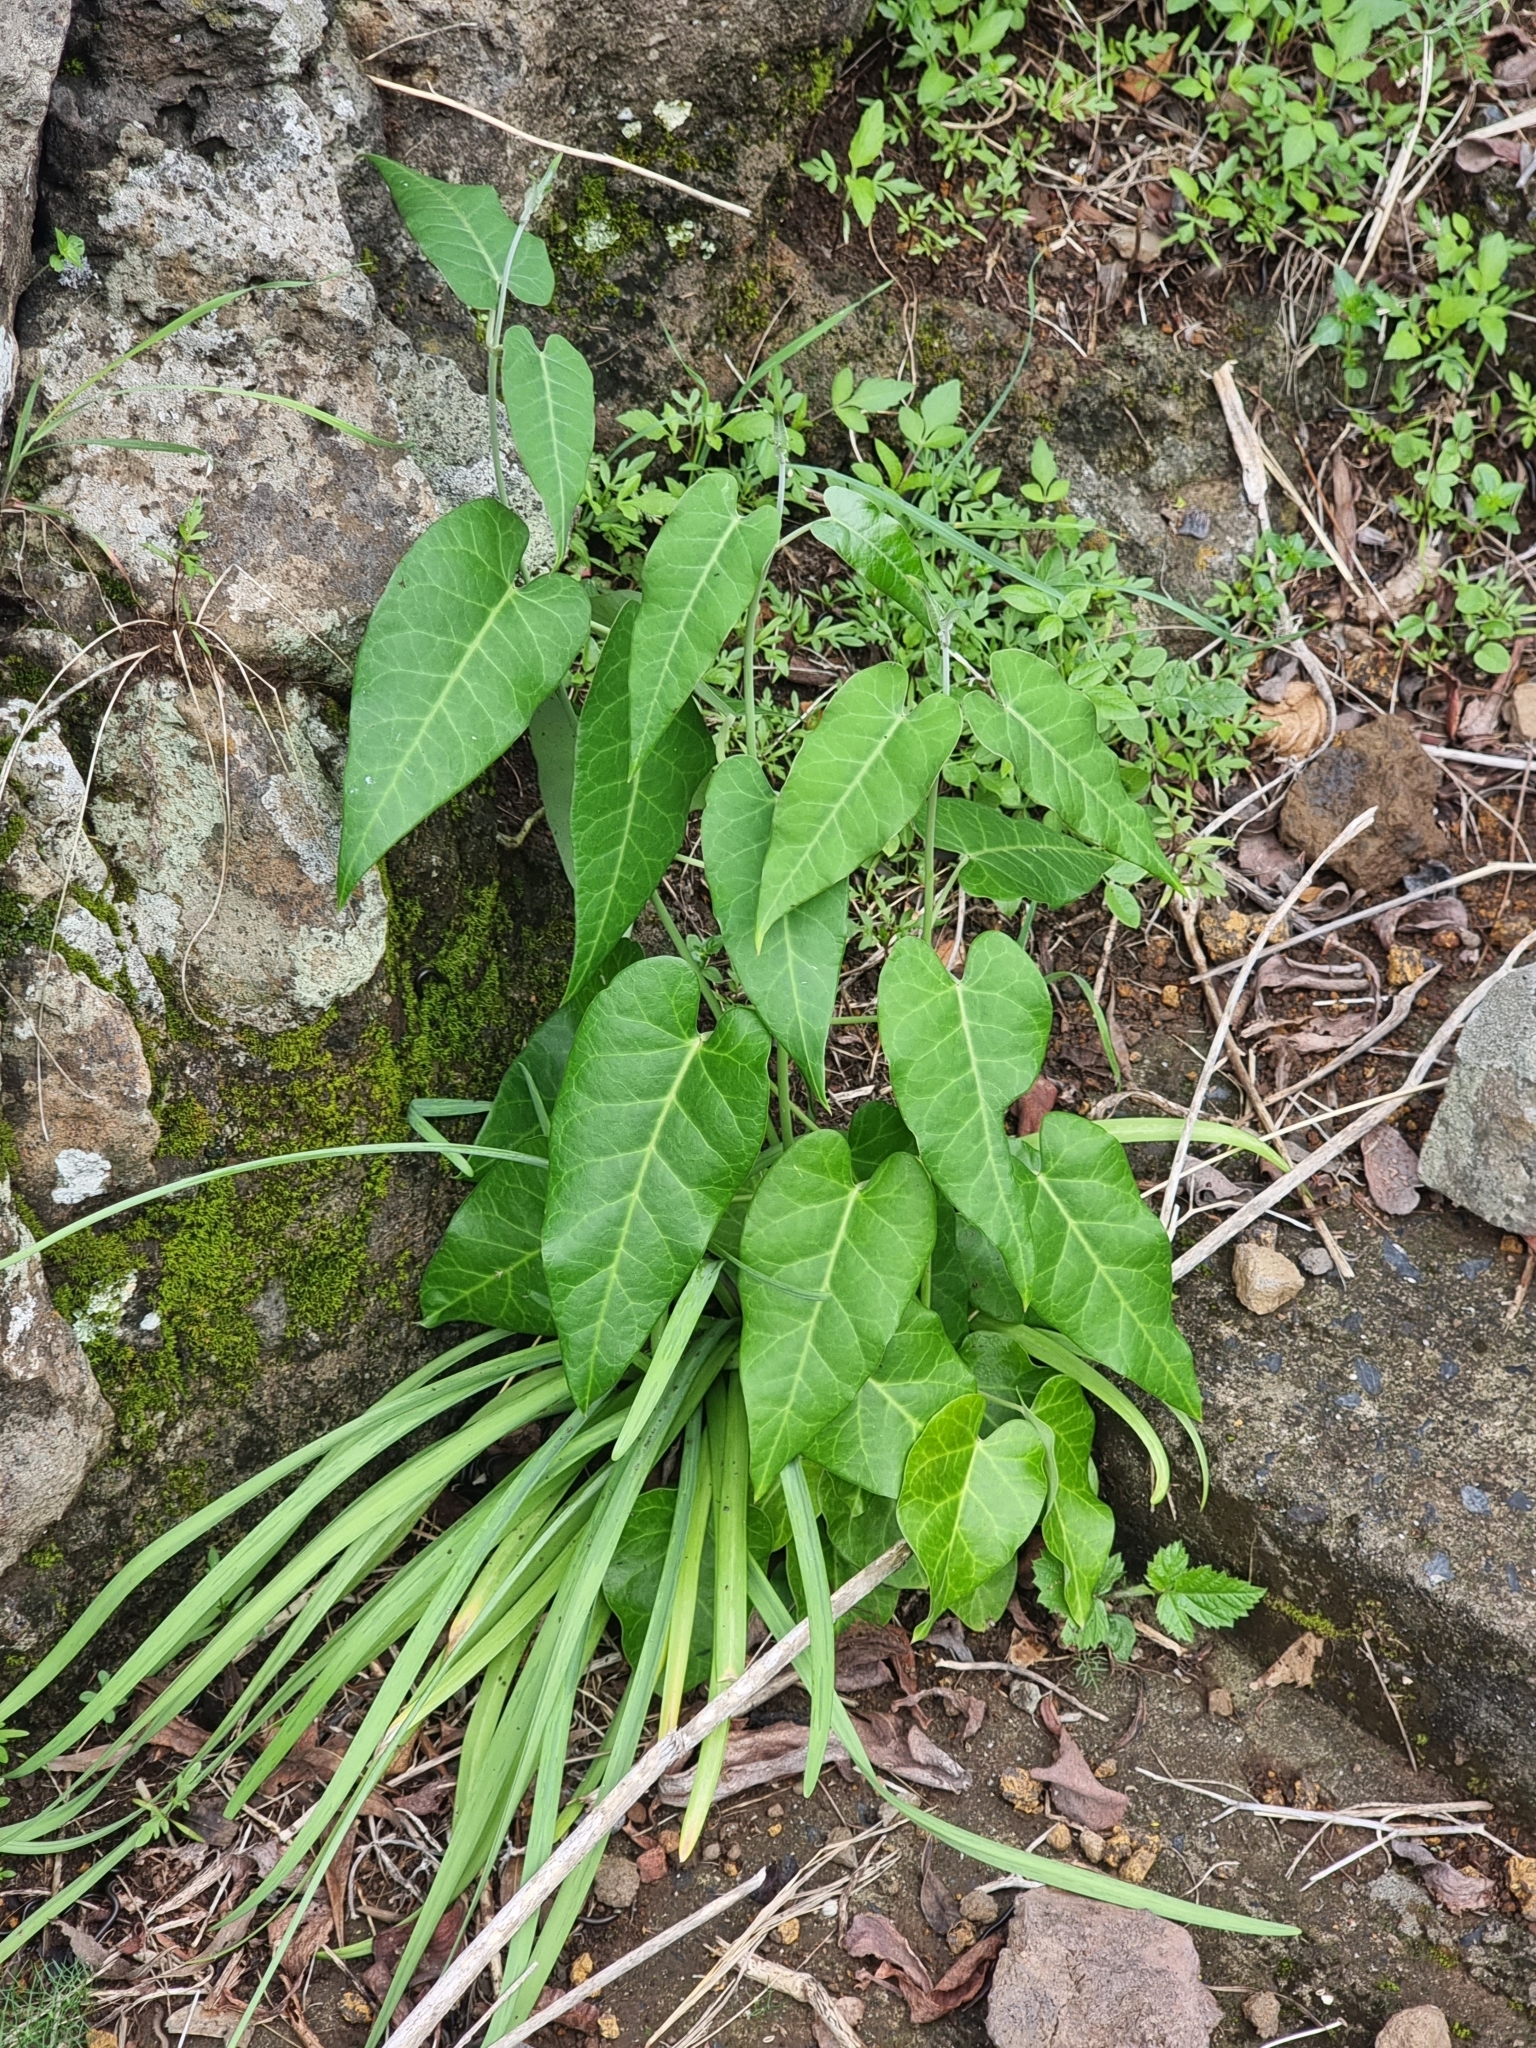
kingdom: Plantae
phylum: Tracheophyta
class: Magnoliopsida
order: Gentianales
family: Apocynaceae
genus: Araujia
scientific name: Araujia sericifera
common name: White bladderflower
